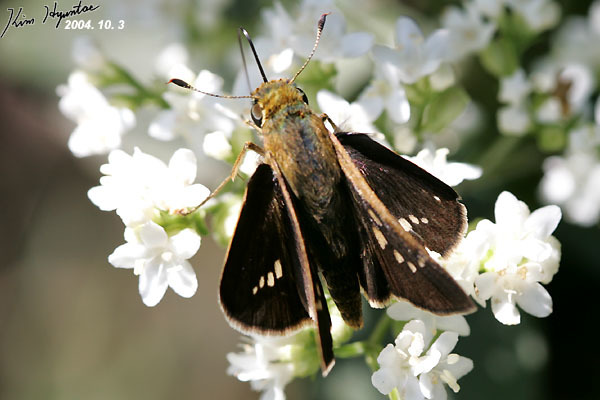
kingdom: Animalia
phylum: Arthropoda
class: Insecta
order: Lepidoptera
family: Hesperiidae
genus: Parnara
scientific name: Parnara guttatus
